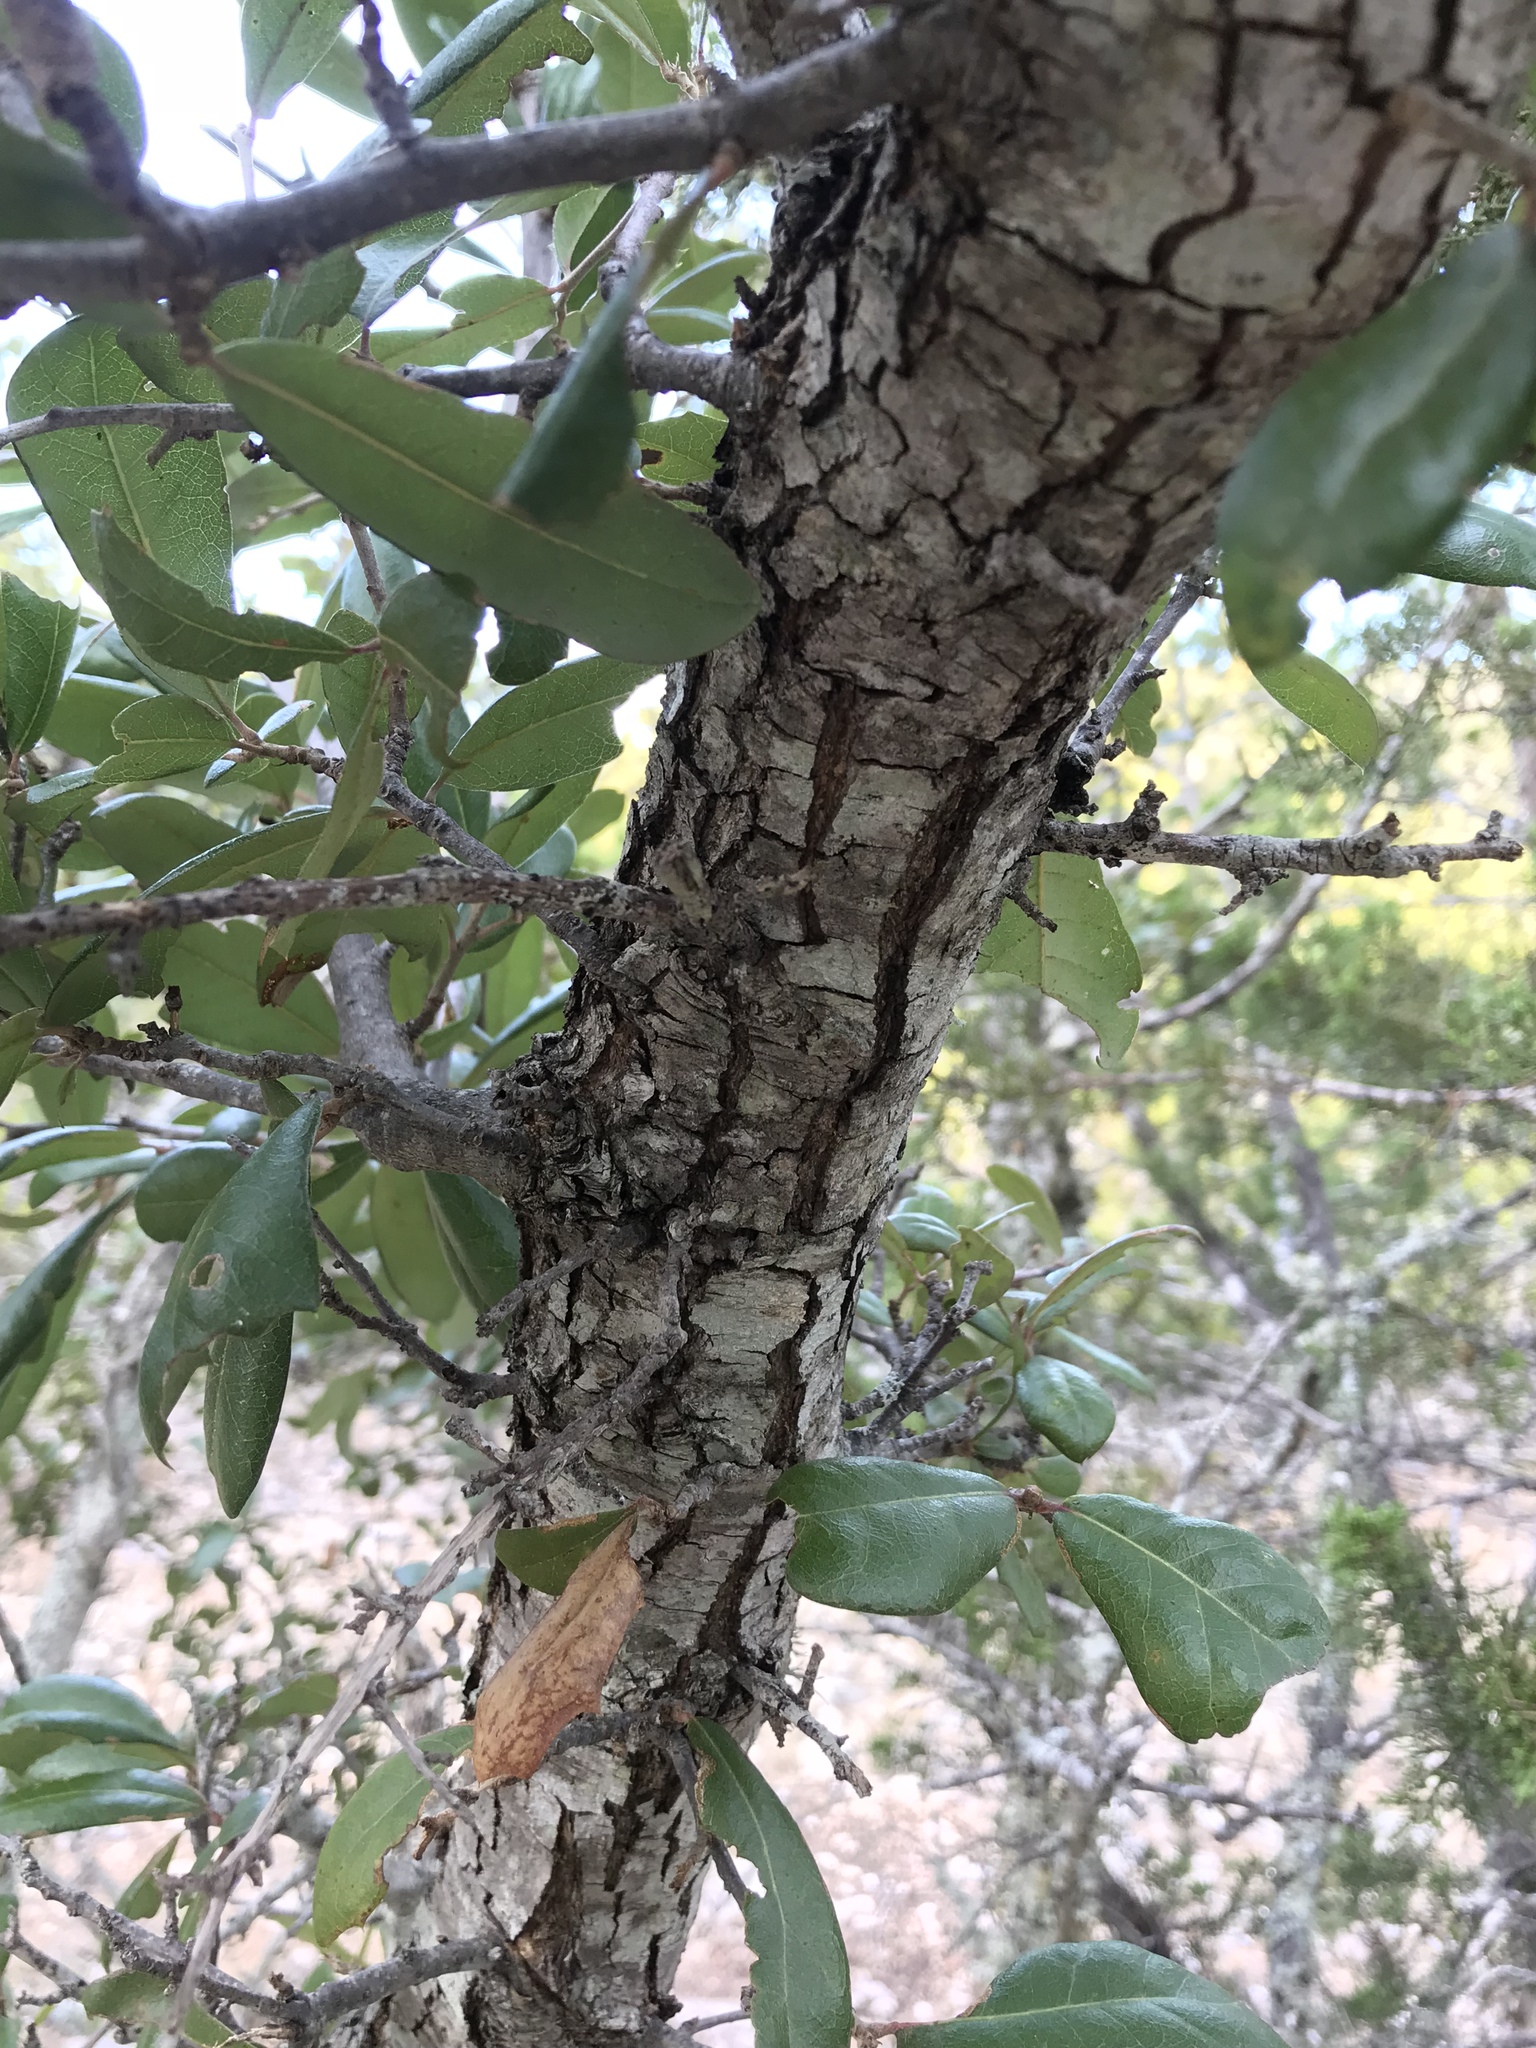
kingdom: Plantae
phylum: Tracheophyta
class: Magnoliopsida
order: Fagales
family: Fagaceae
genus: Quercus
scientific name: Quercus fusiformis
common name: Texas live oak
